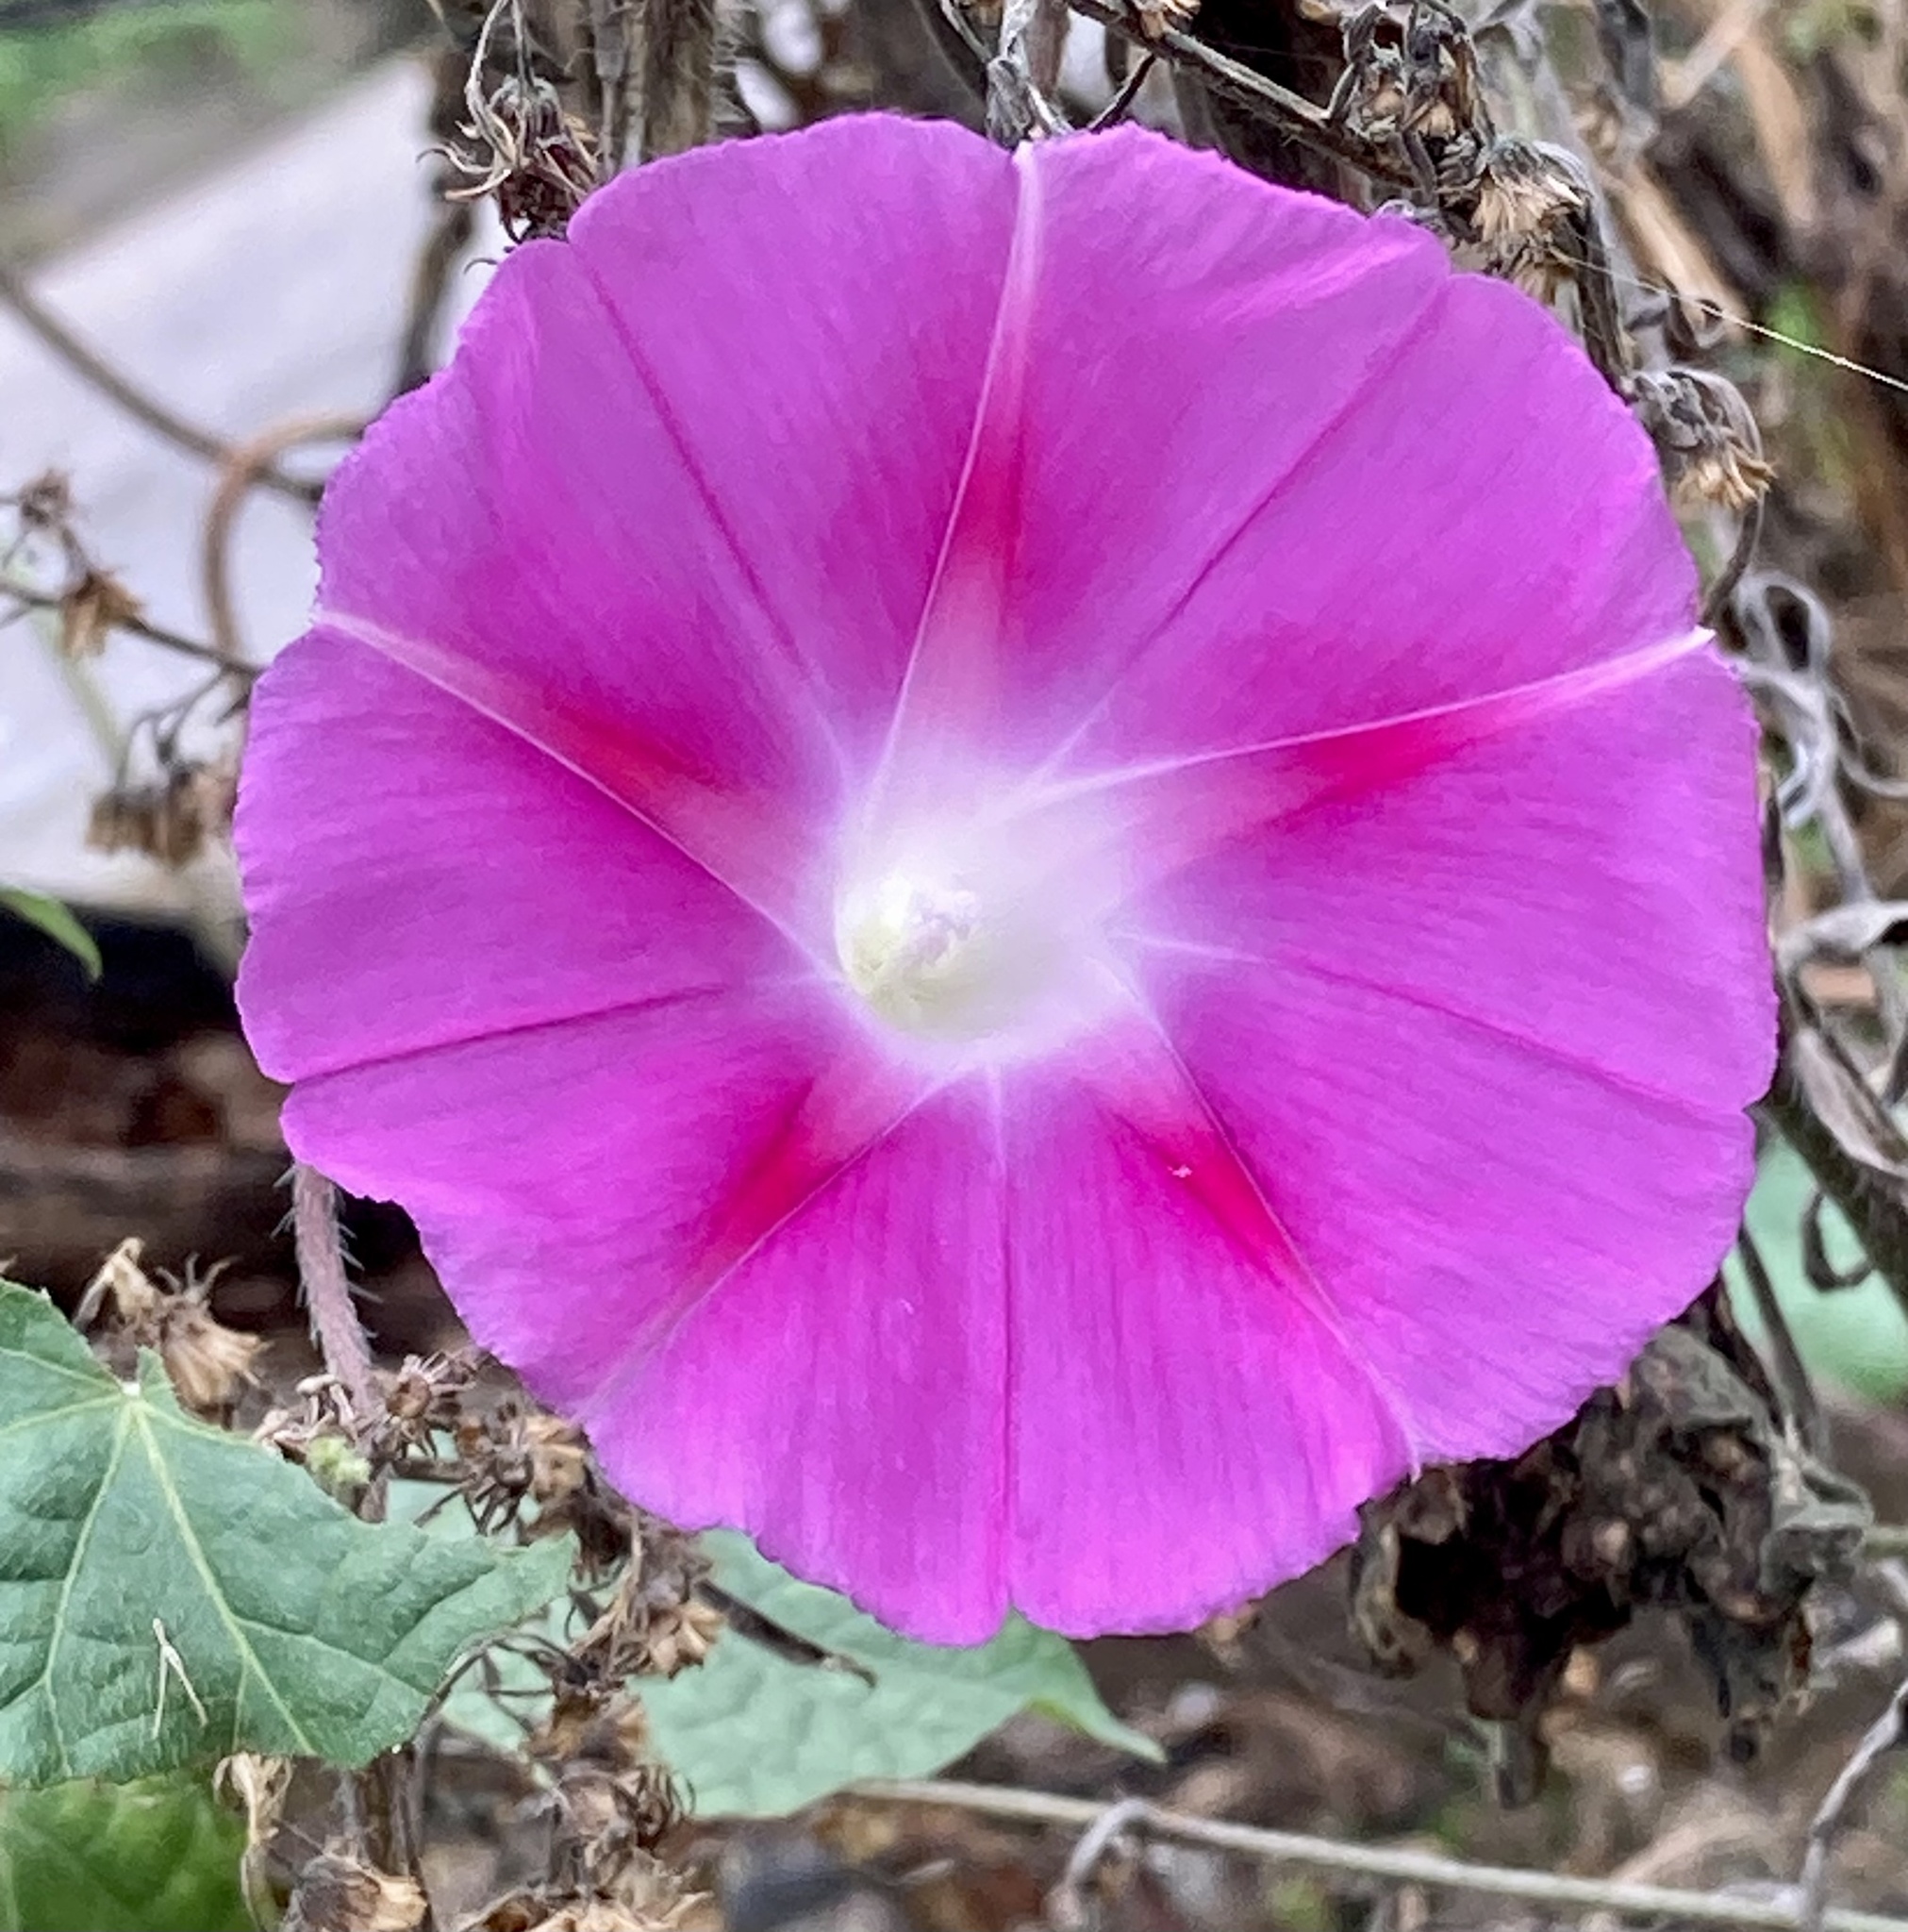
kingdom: Plantae
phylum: Tracheophyta
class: Magnoliopsida
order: Solanales
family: Convolvulaceae
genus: Ipomoea
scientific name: Ipomoea purpurea
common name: Common morning-glory
